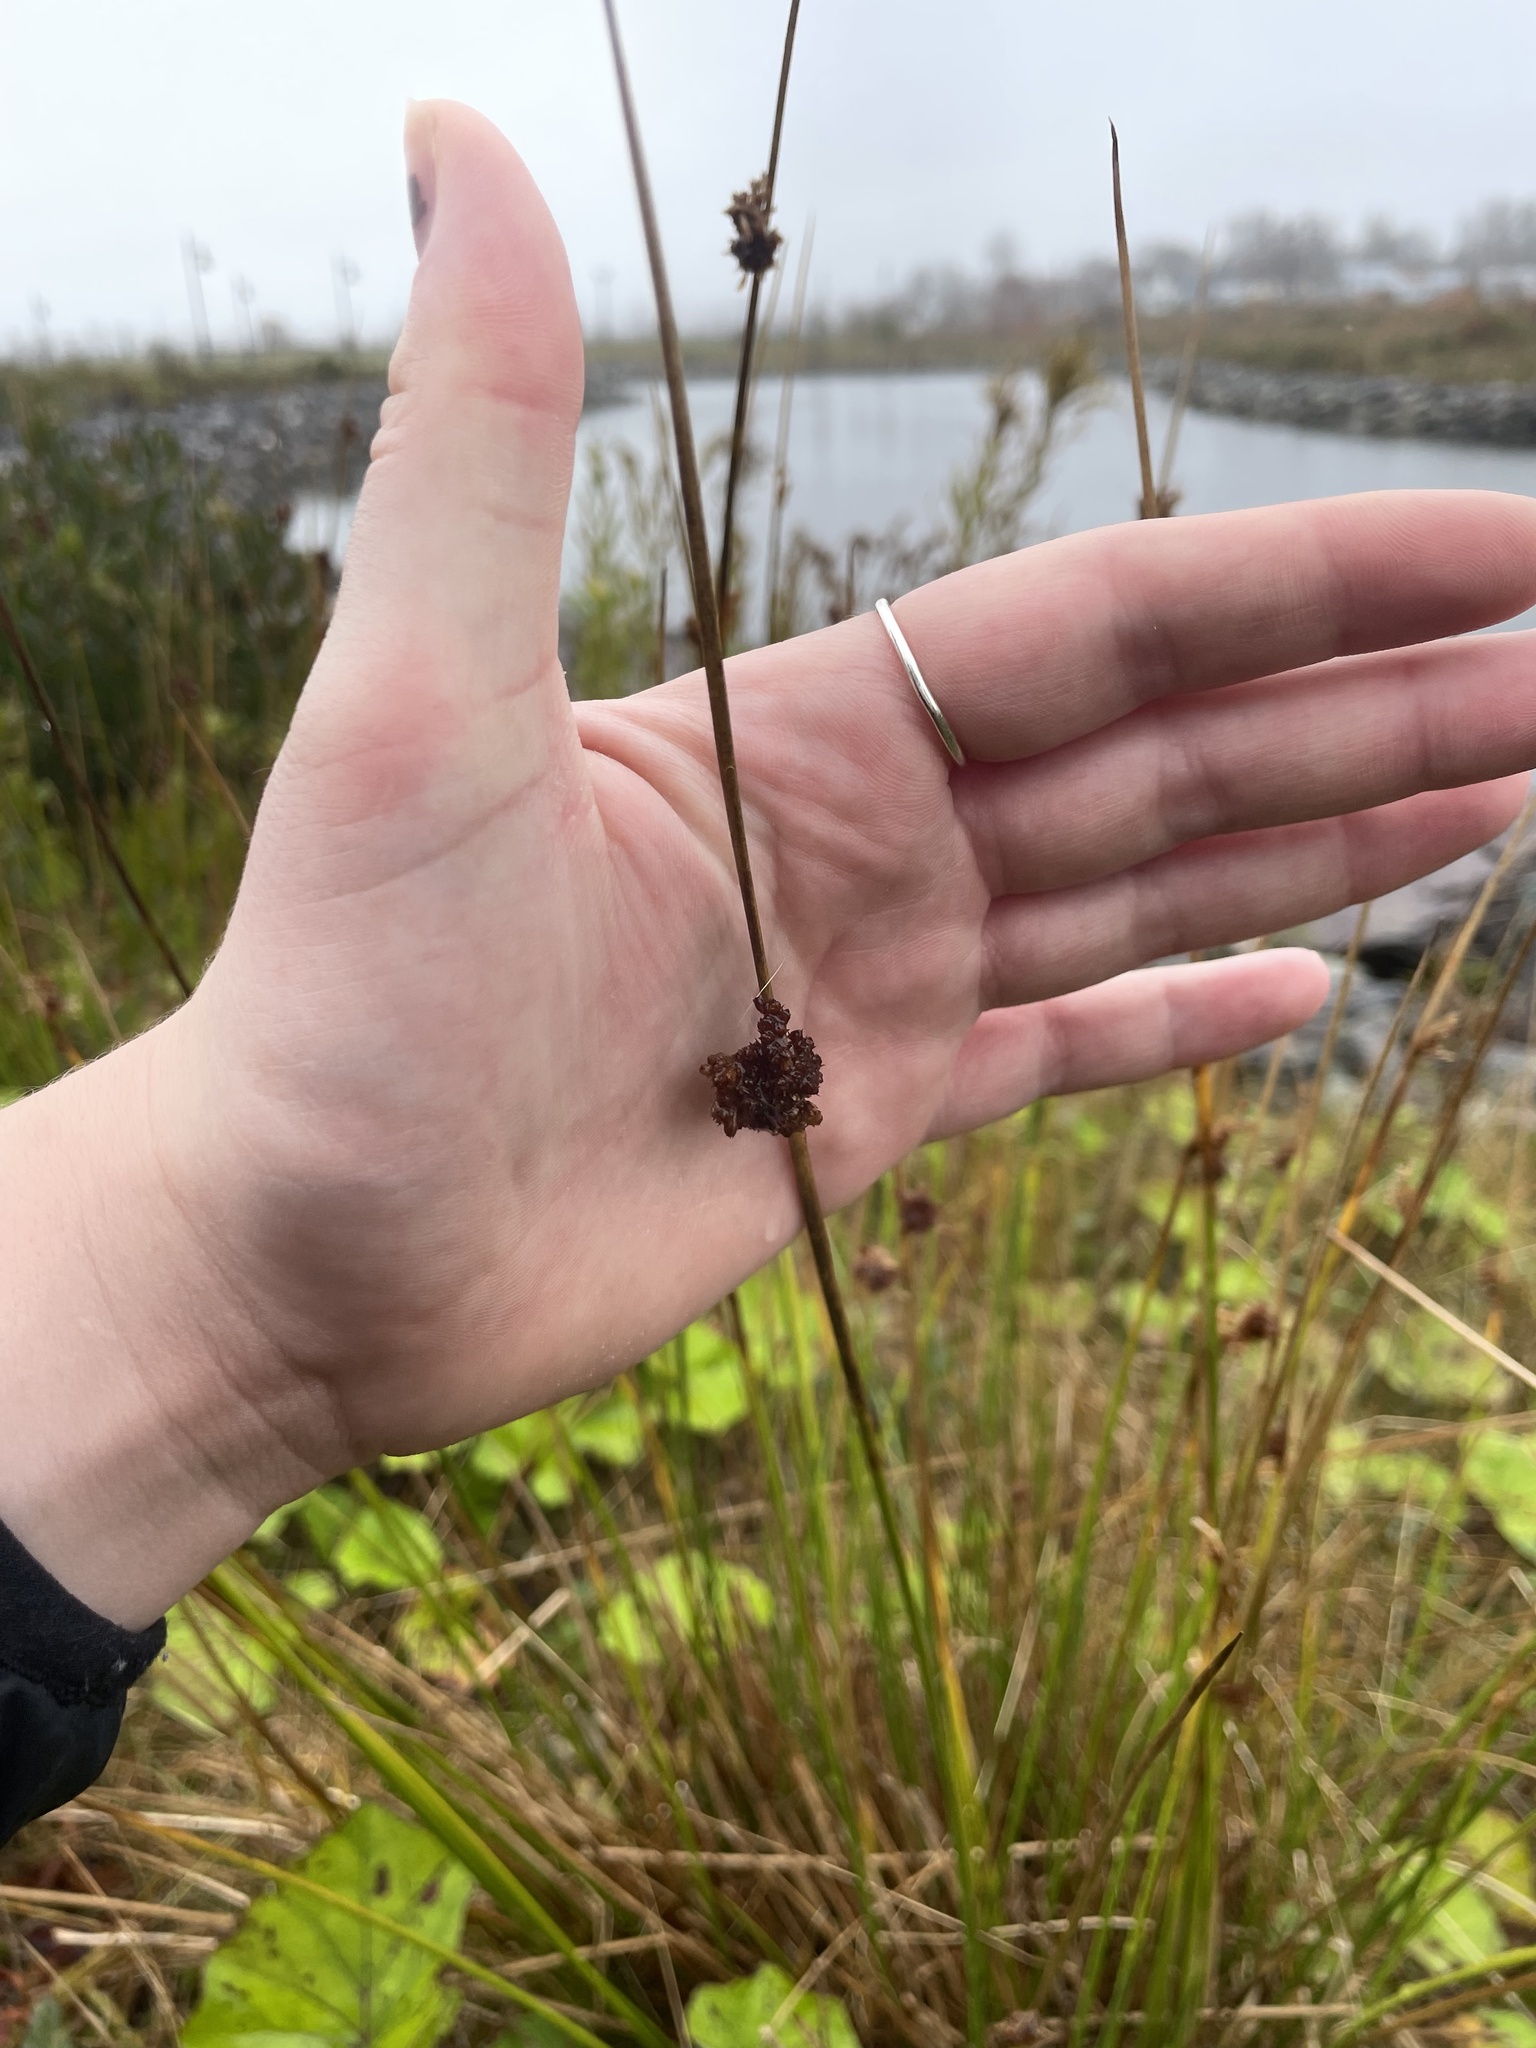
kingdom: Plantae
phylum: Tracheophyta
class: Liliopsida
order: Poales
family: Juncaceae
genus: Juncus
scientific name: Juncus conglomeratus
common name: Compact rush
